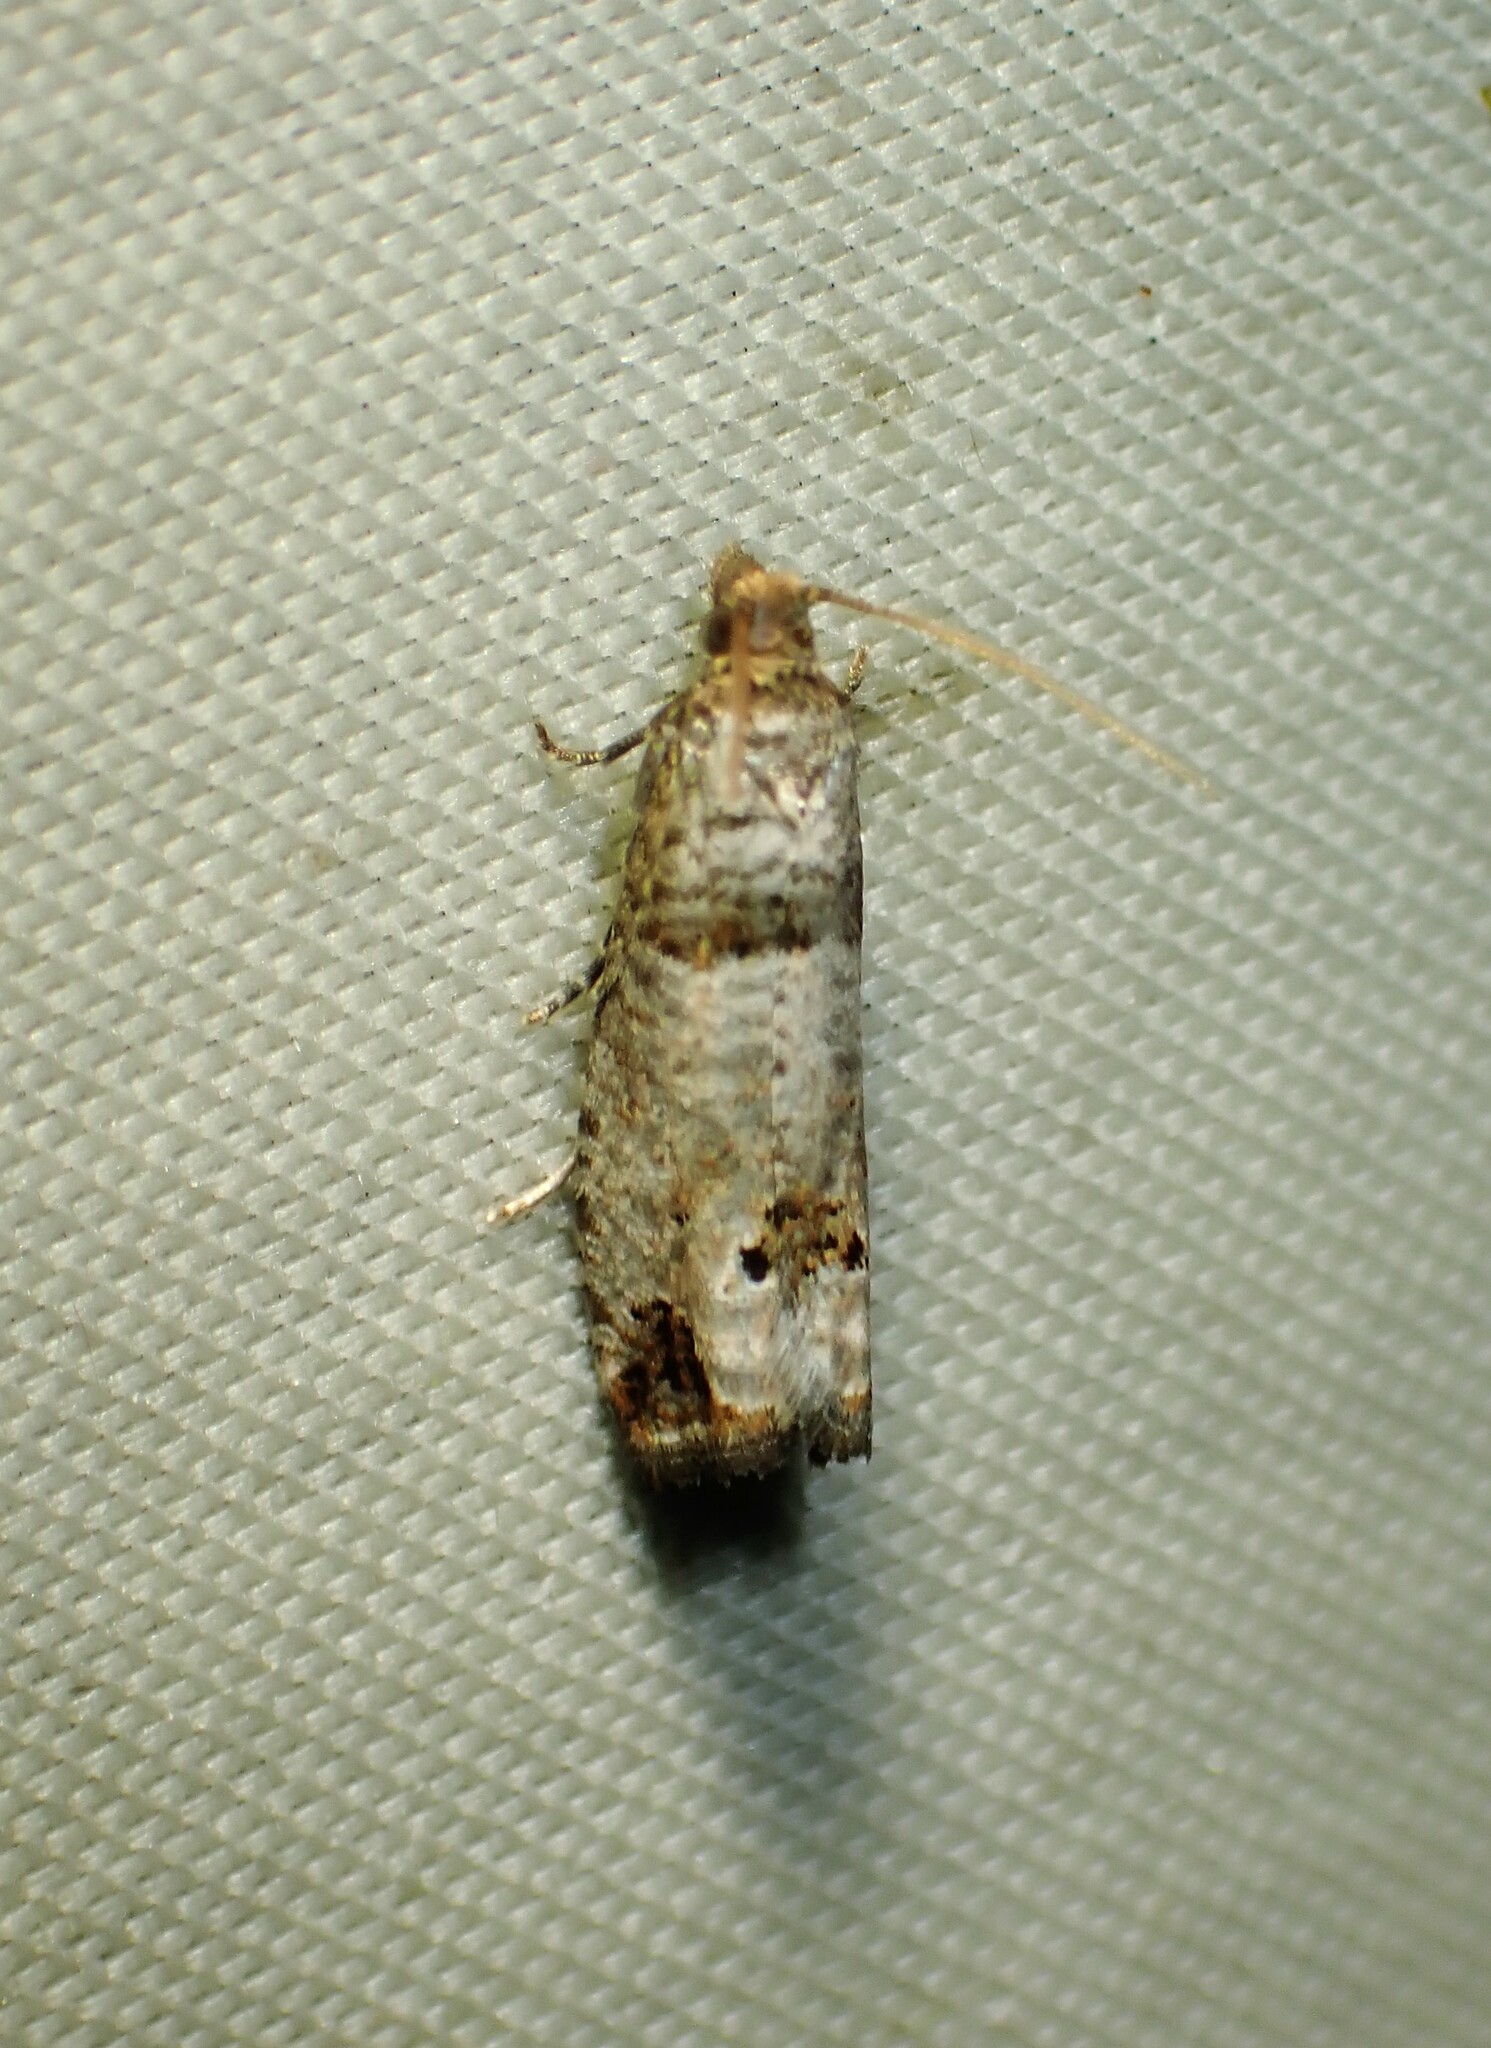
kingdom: Animalia
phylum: Arthropoda
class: Insecta
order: Lepidoptera
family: Tortricidae
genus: Notocelia
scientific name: Notocelia culminana
